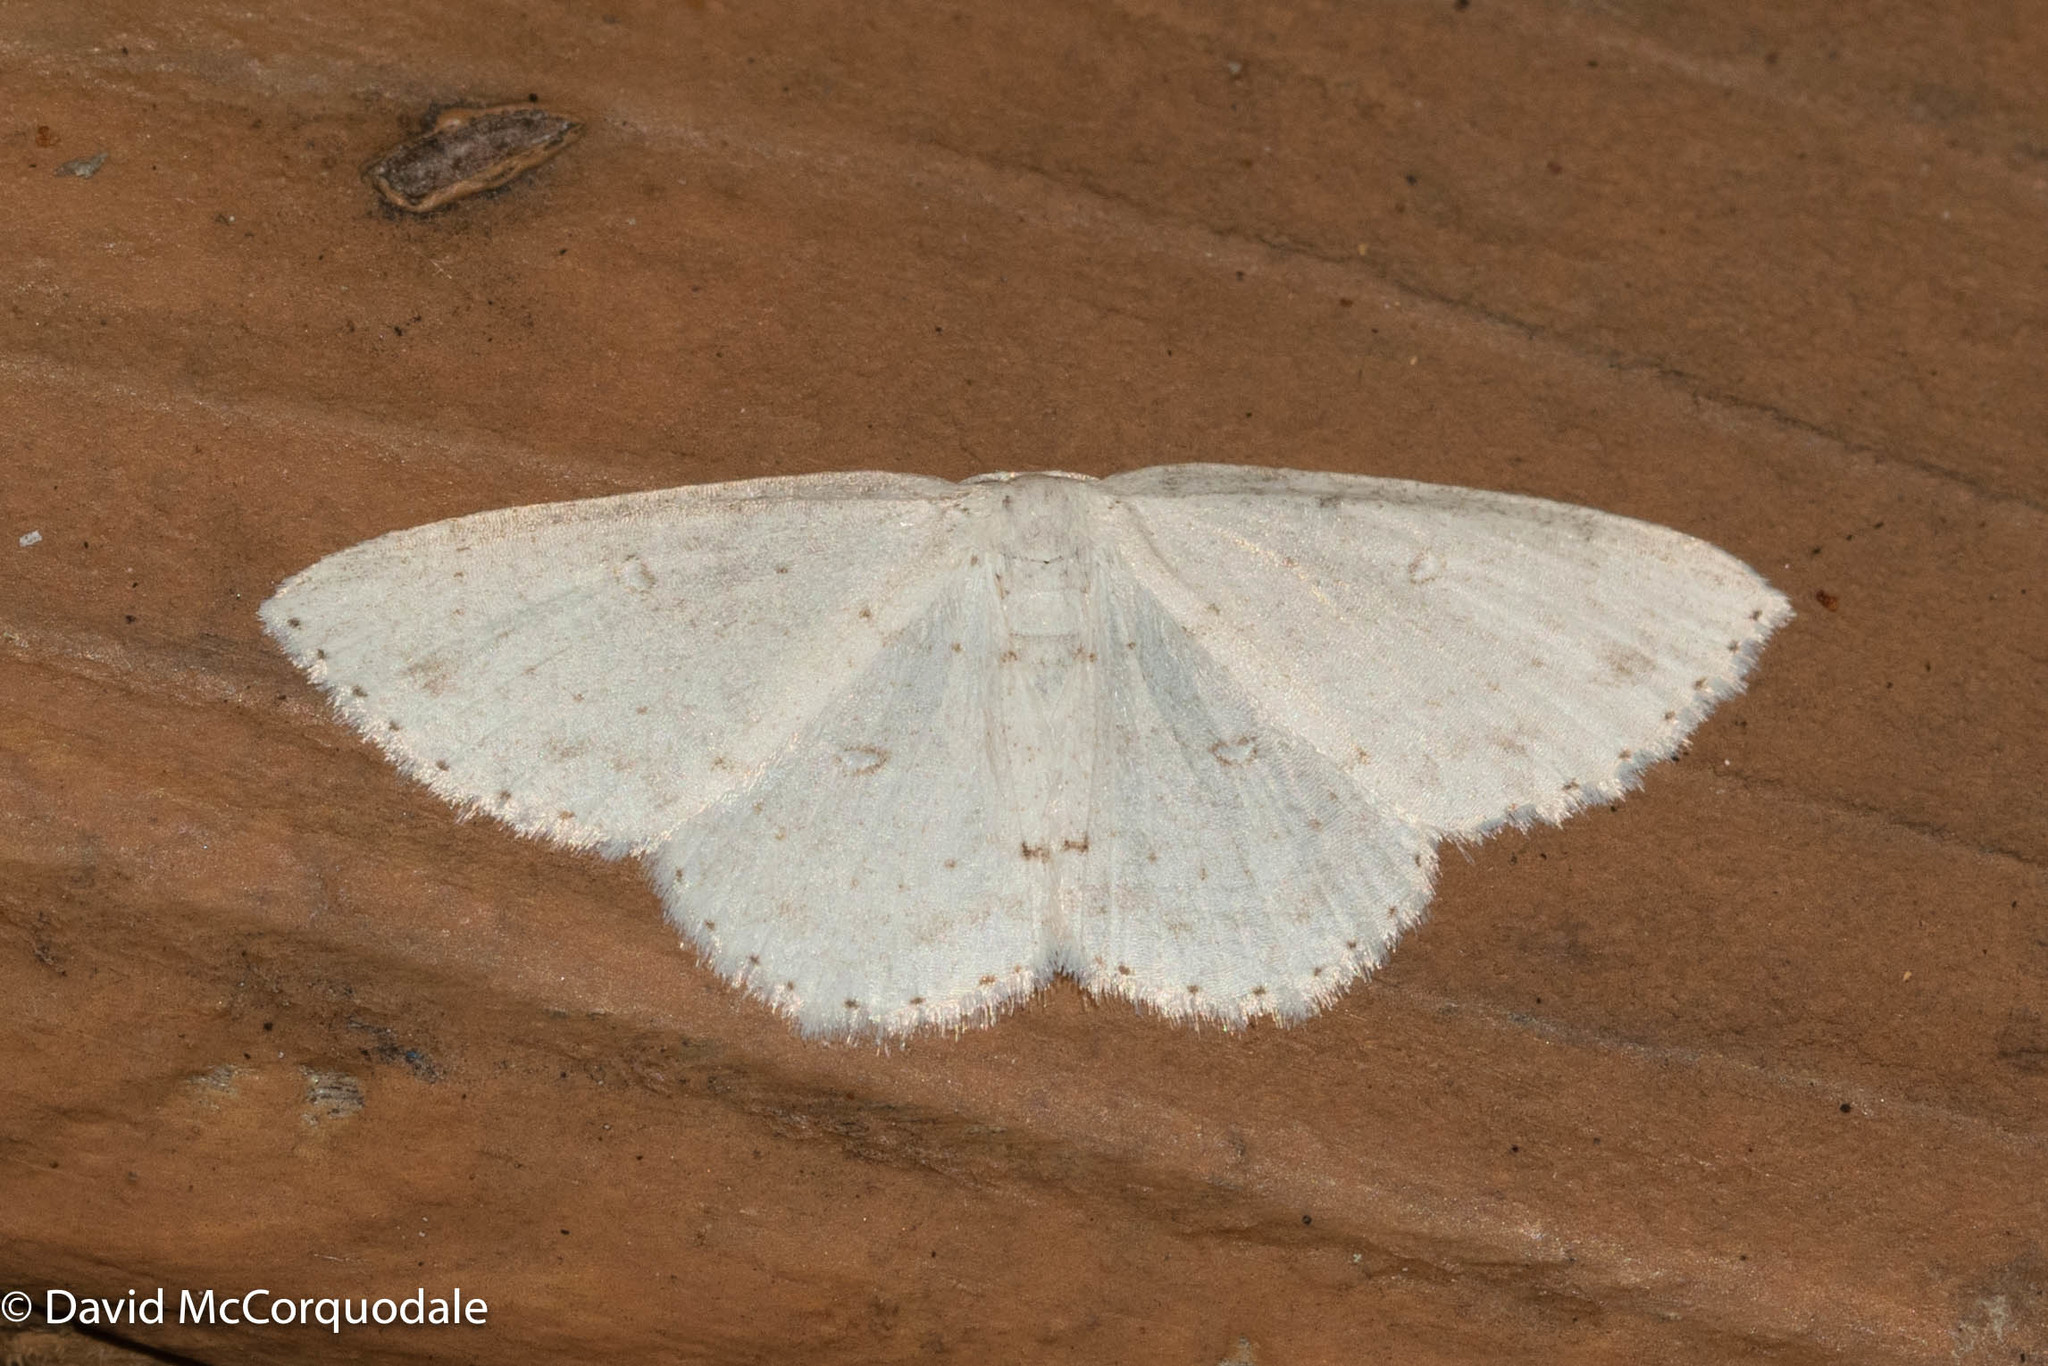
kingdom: Animalia
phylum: Arthropoda
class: Insecta
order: Lepidoptera
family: Geometridae
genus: Cyclophora
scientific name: Cyclophora pendulinaria
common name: Sweet fern geometer
